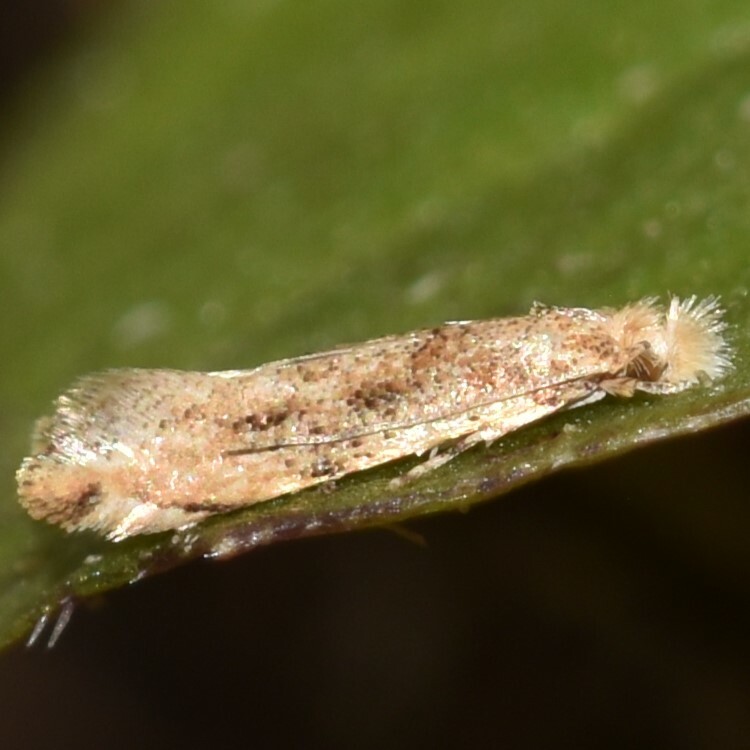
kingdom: Animalia
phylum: Arthropoda
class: Insecta
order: Lepidoptera
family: Tineidae
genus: Erechthias
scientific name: Erechthias minuscula
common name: Fungus moth
